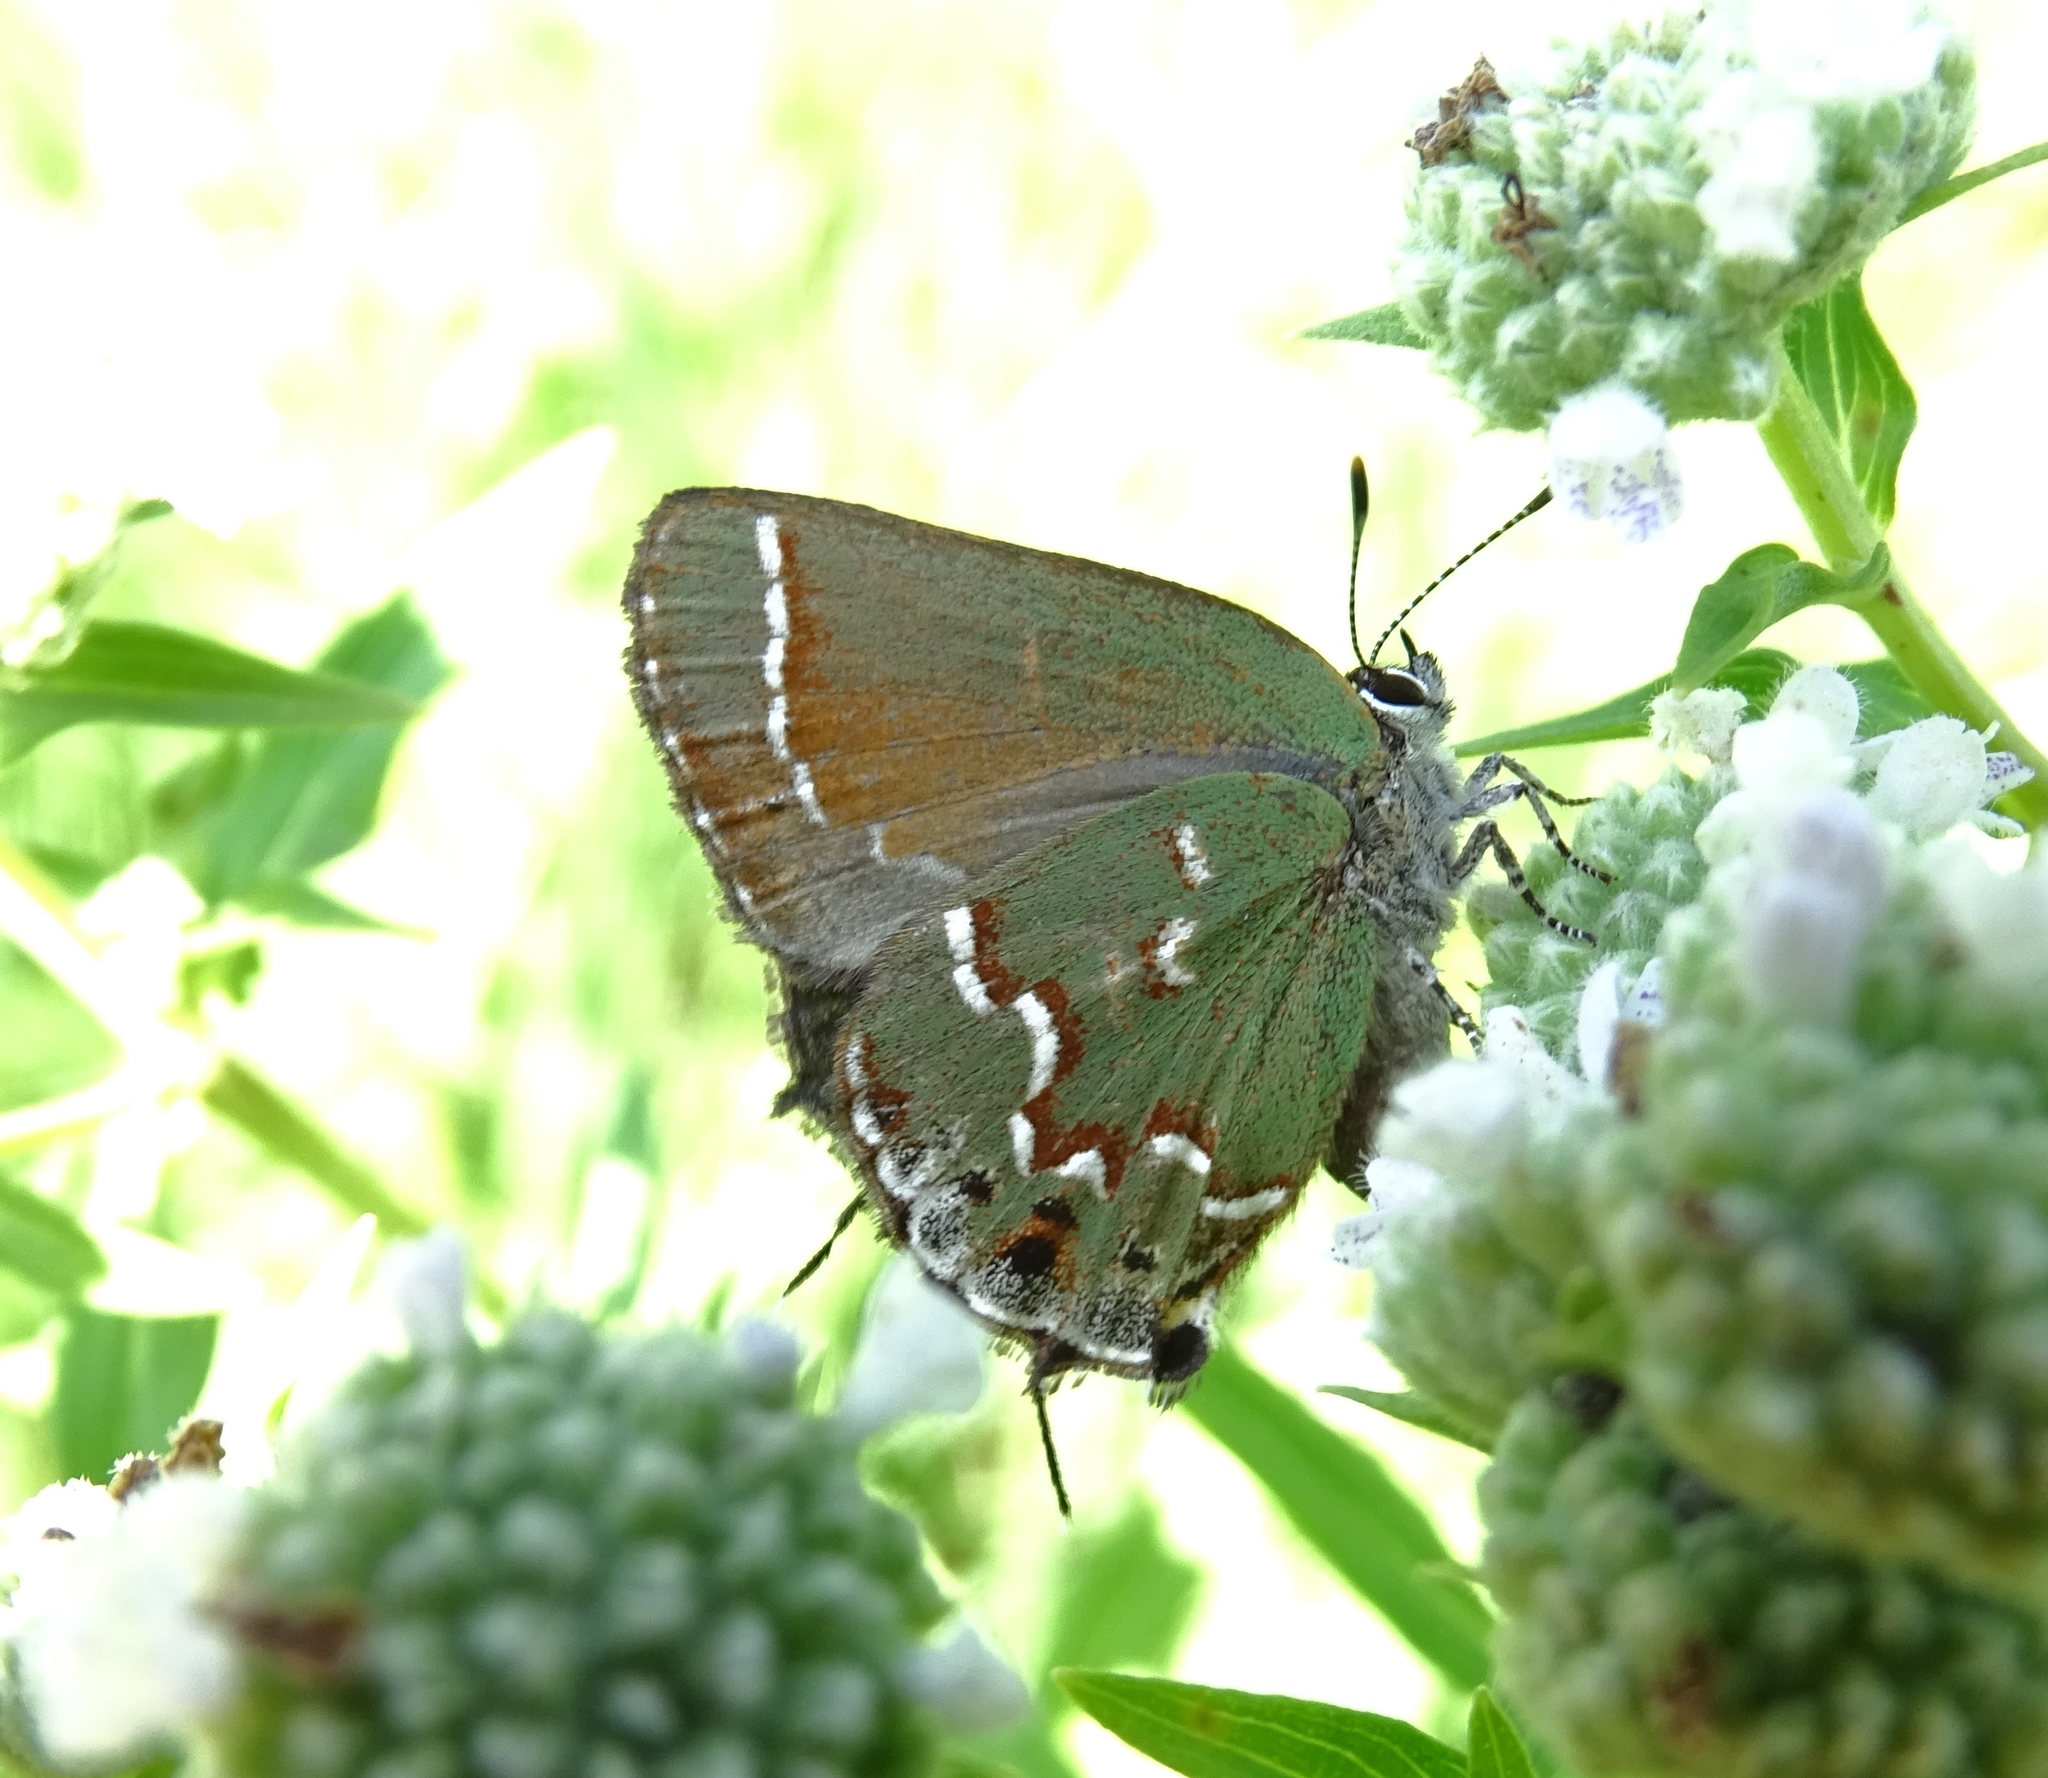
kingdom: Animalia
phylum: Arthropoda
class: Insecta
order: Lepidoptera
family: Lycaenidae
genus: Mitoura
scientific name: Mitoura gryneus
